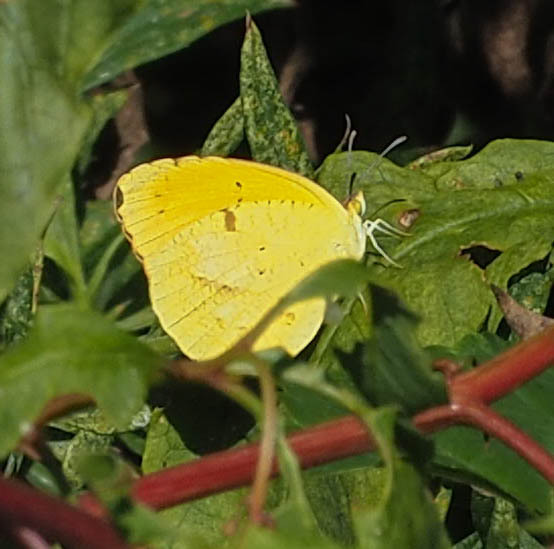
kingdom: Animalia
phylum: Arthropoda
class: Insecta
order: Lepidoptera
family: Pieridae
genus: Abaeis
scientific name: Abaeis nicippe
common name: Sleepy orange
